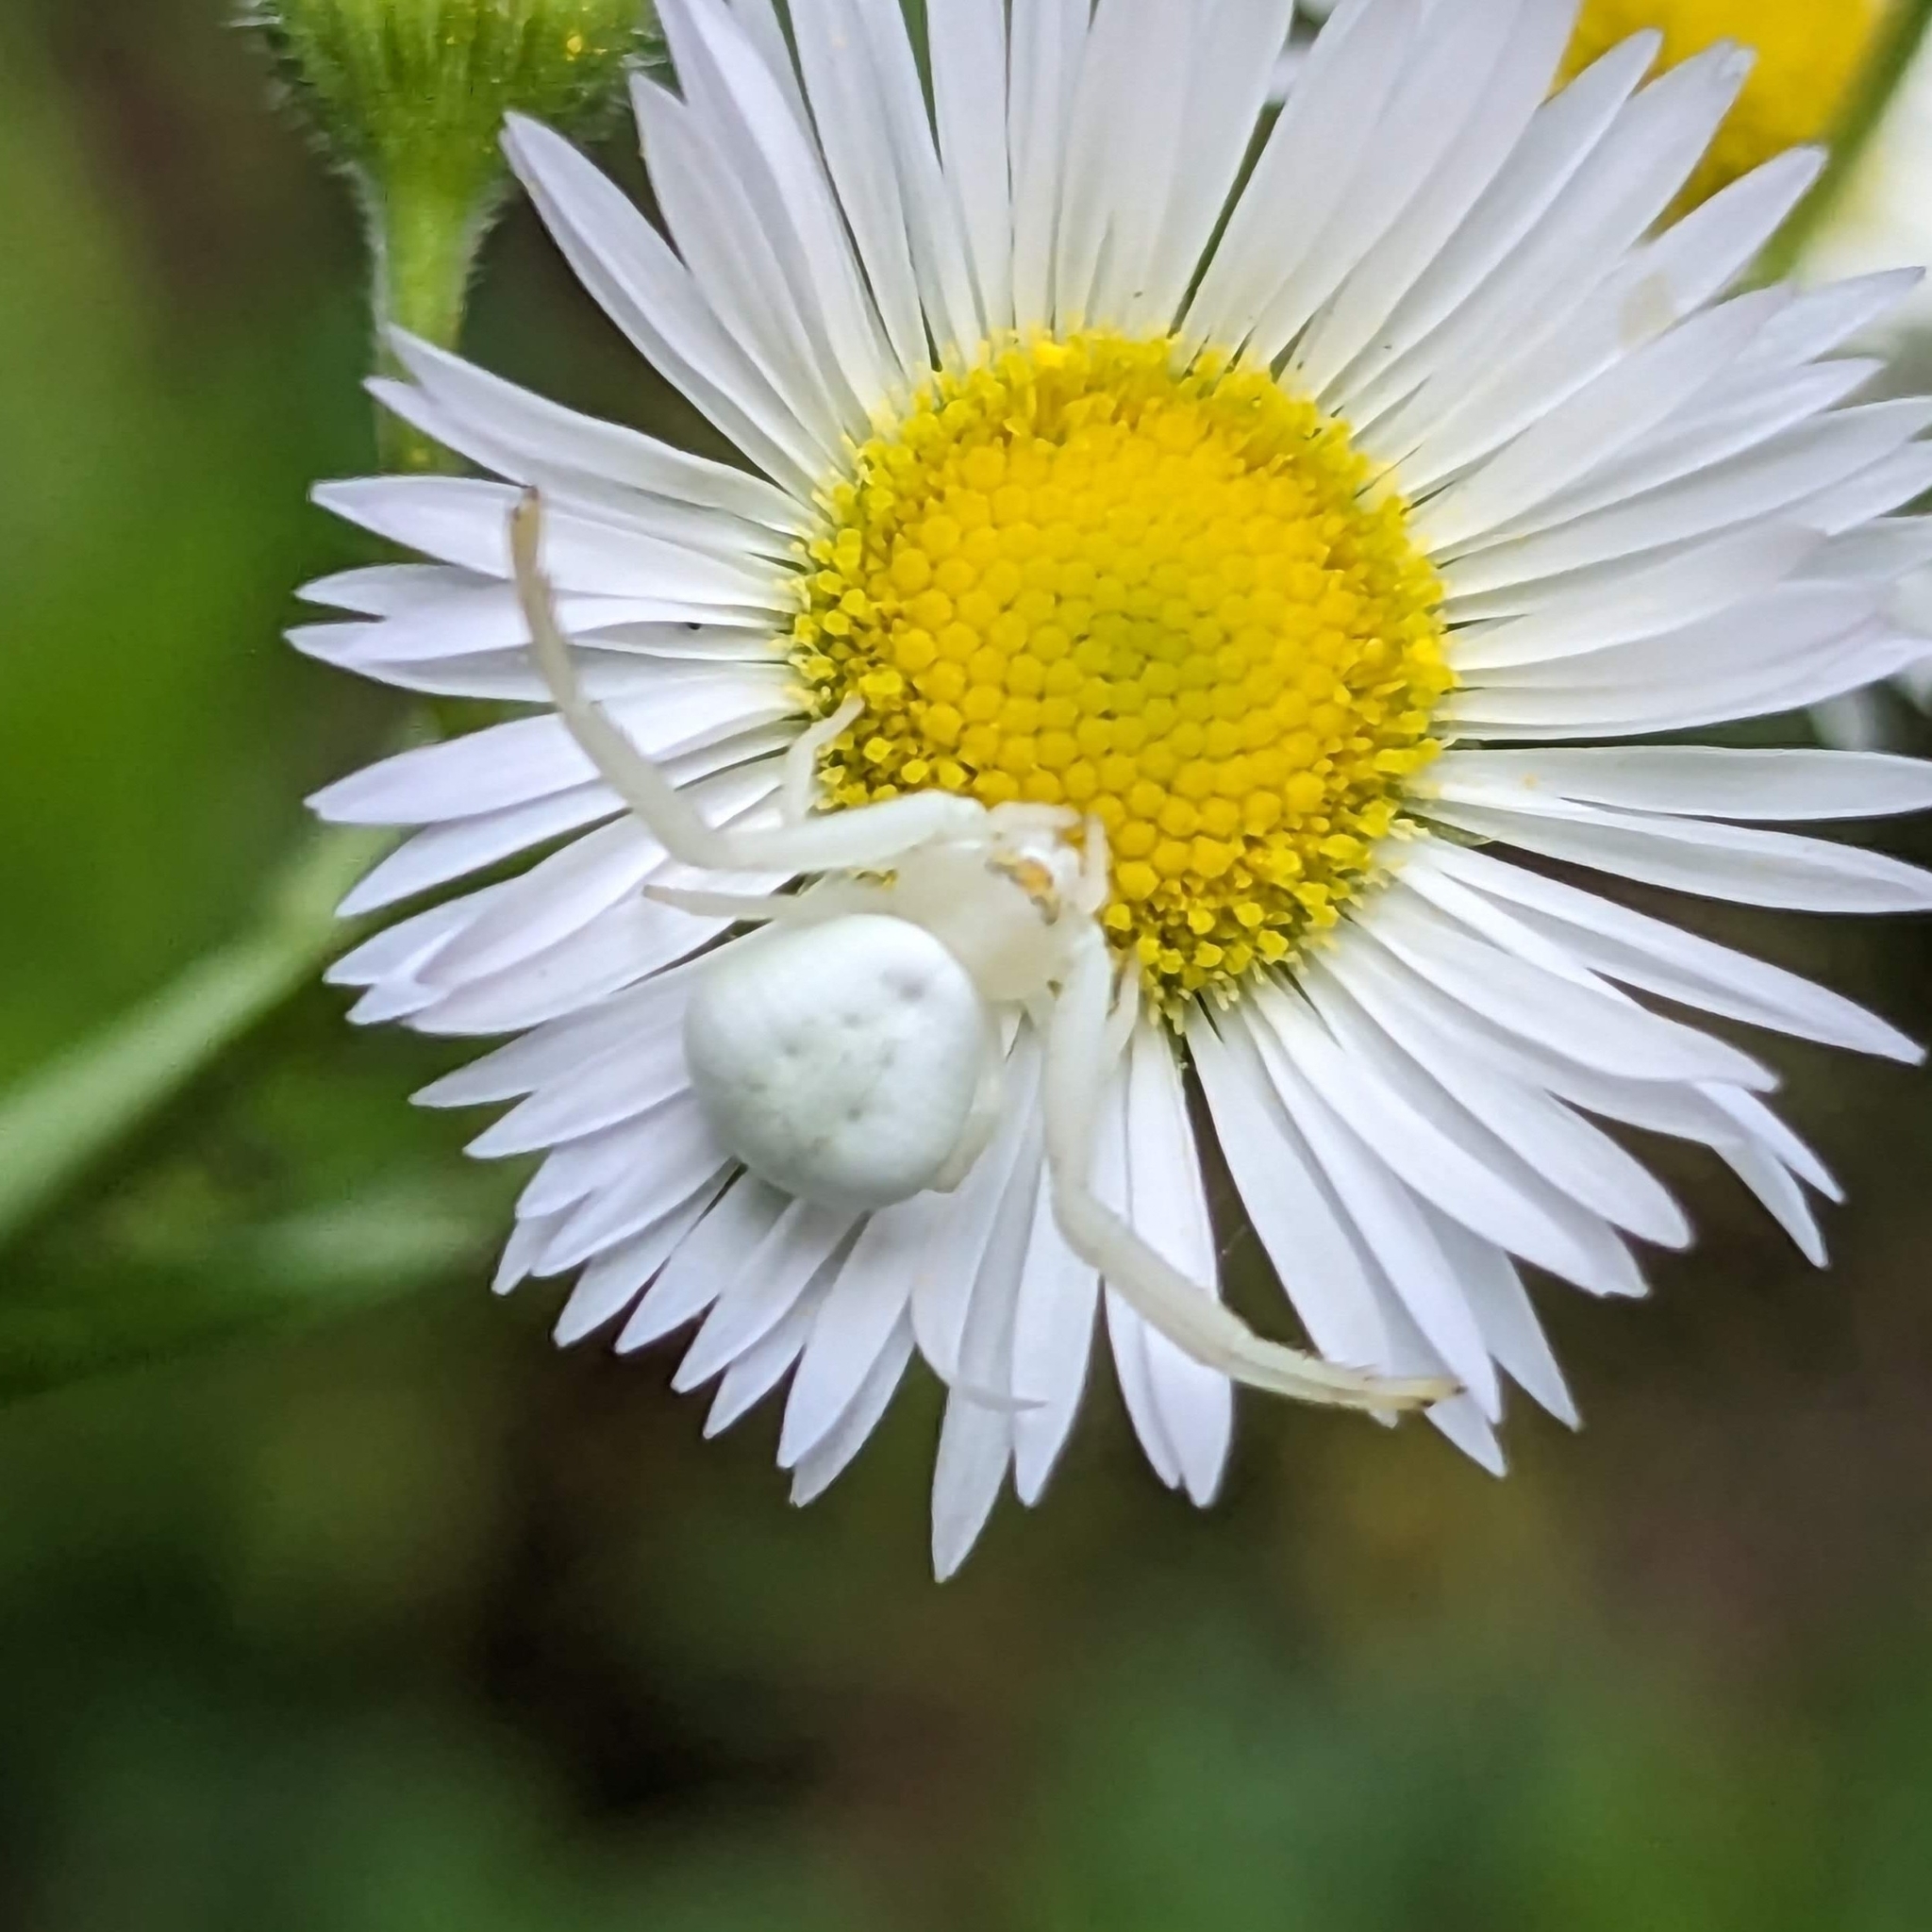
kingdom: Animalia
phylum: Arthropoda
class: Arachnida
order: Araneae
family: Thomisidae
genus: Misumena
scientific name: Misumena vatia
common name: Goldenrod crab spider
